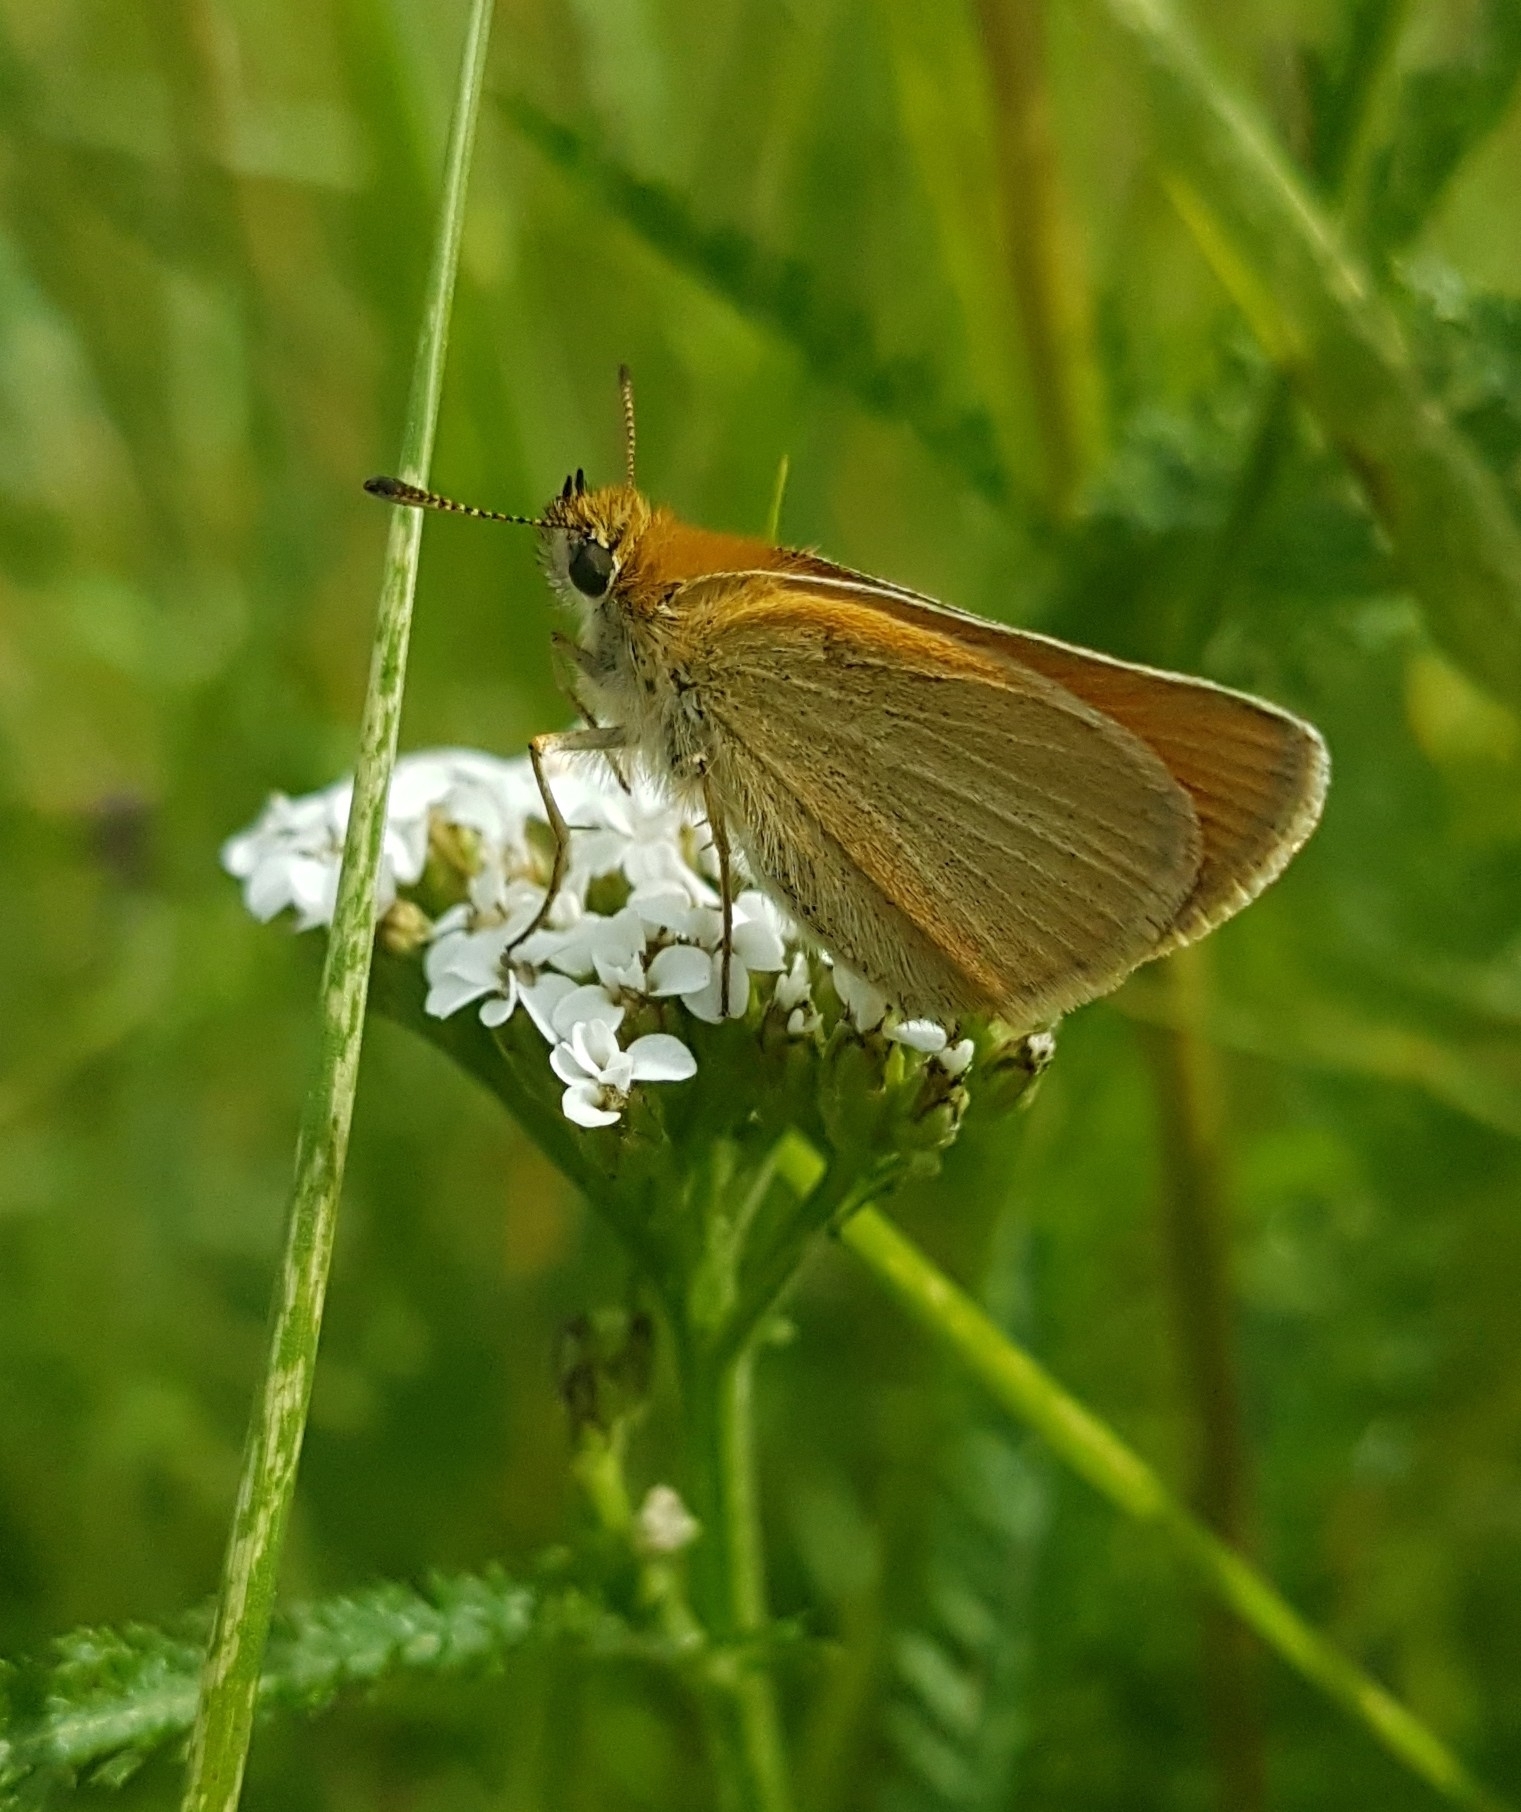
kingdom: Animalia
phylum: Arthropoda
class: Insecta
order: Lepidoptera
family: Hesperiidae
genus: Thymelicus
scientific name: Thymelicus lineola
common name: Essex skipper
